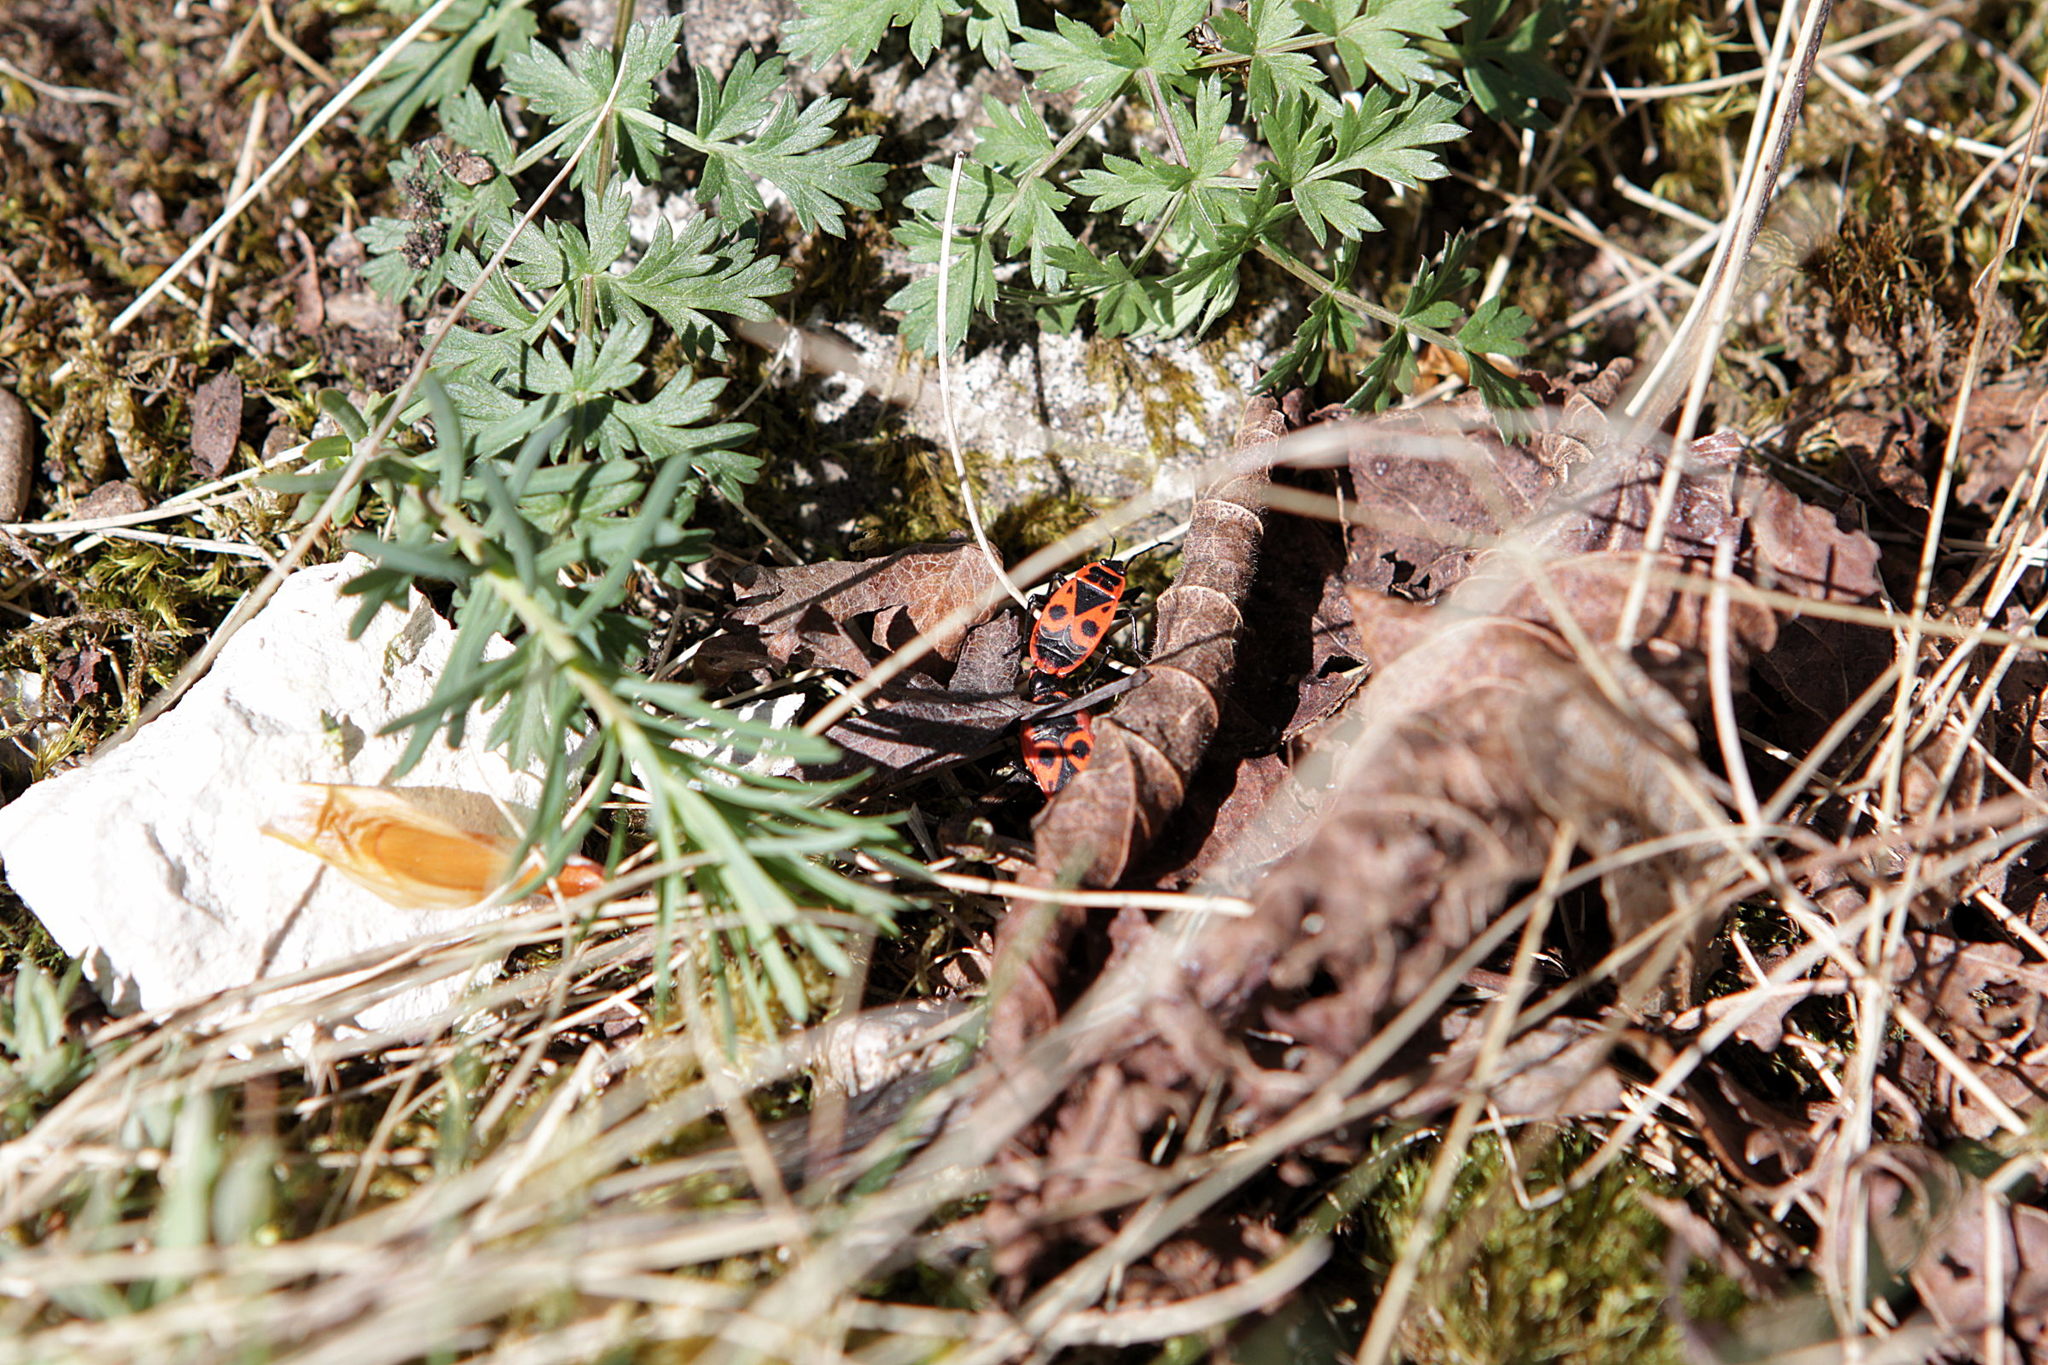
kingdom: Animalia
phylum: Arthropoda
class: Insecta
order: Hemiptera
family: Pyrrhocoridae
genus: Pyrrhocoris
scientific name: Pyrrhocoris apterus
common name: Firebug
